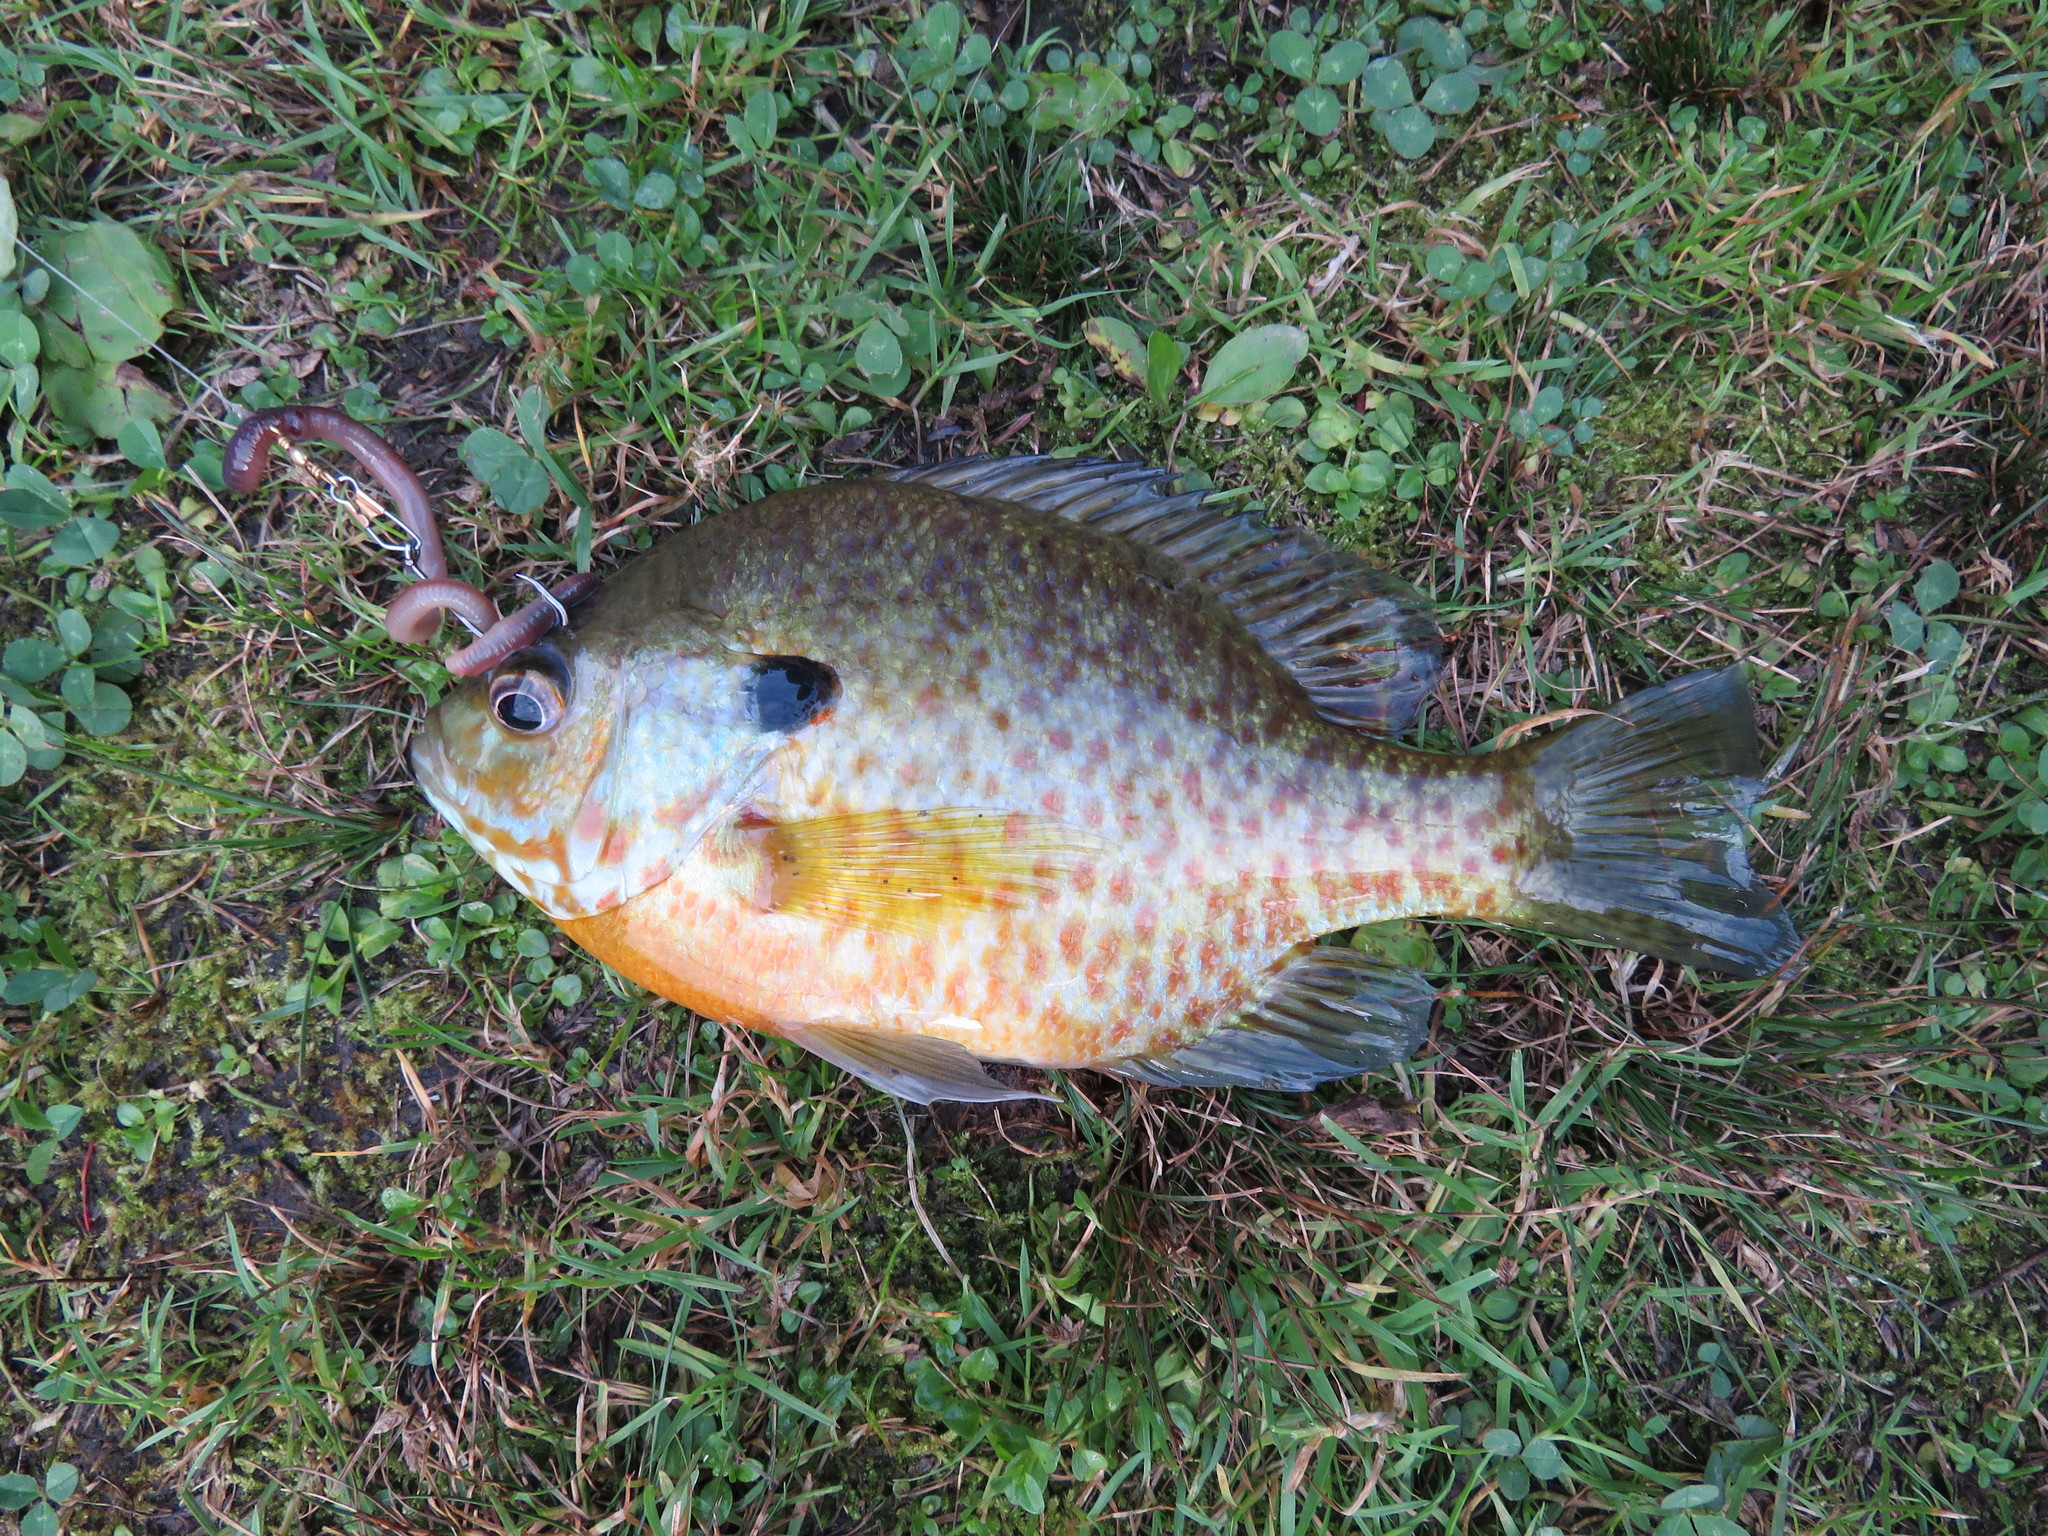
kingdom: Animalia
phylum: Chordata
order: Perciformes
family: Centrarchidae
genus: Lepomis
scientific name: Lepomis
